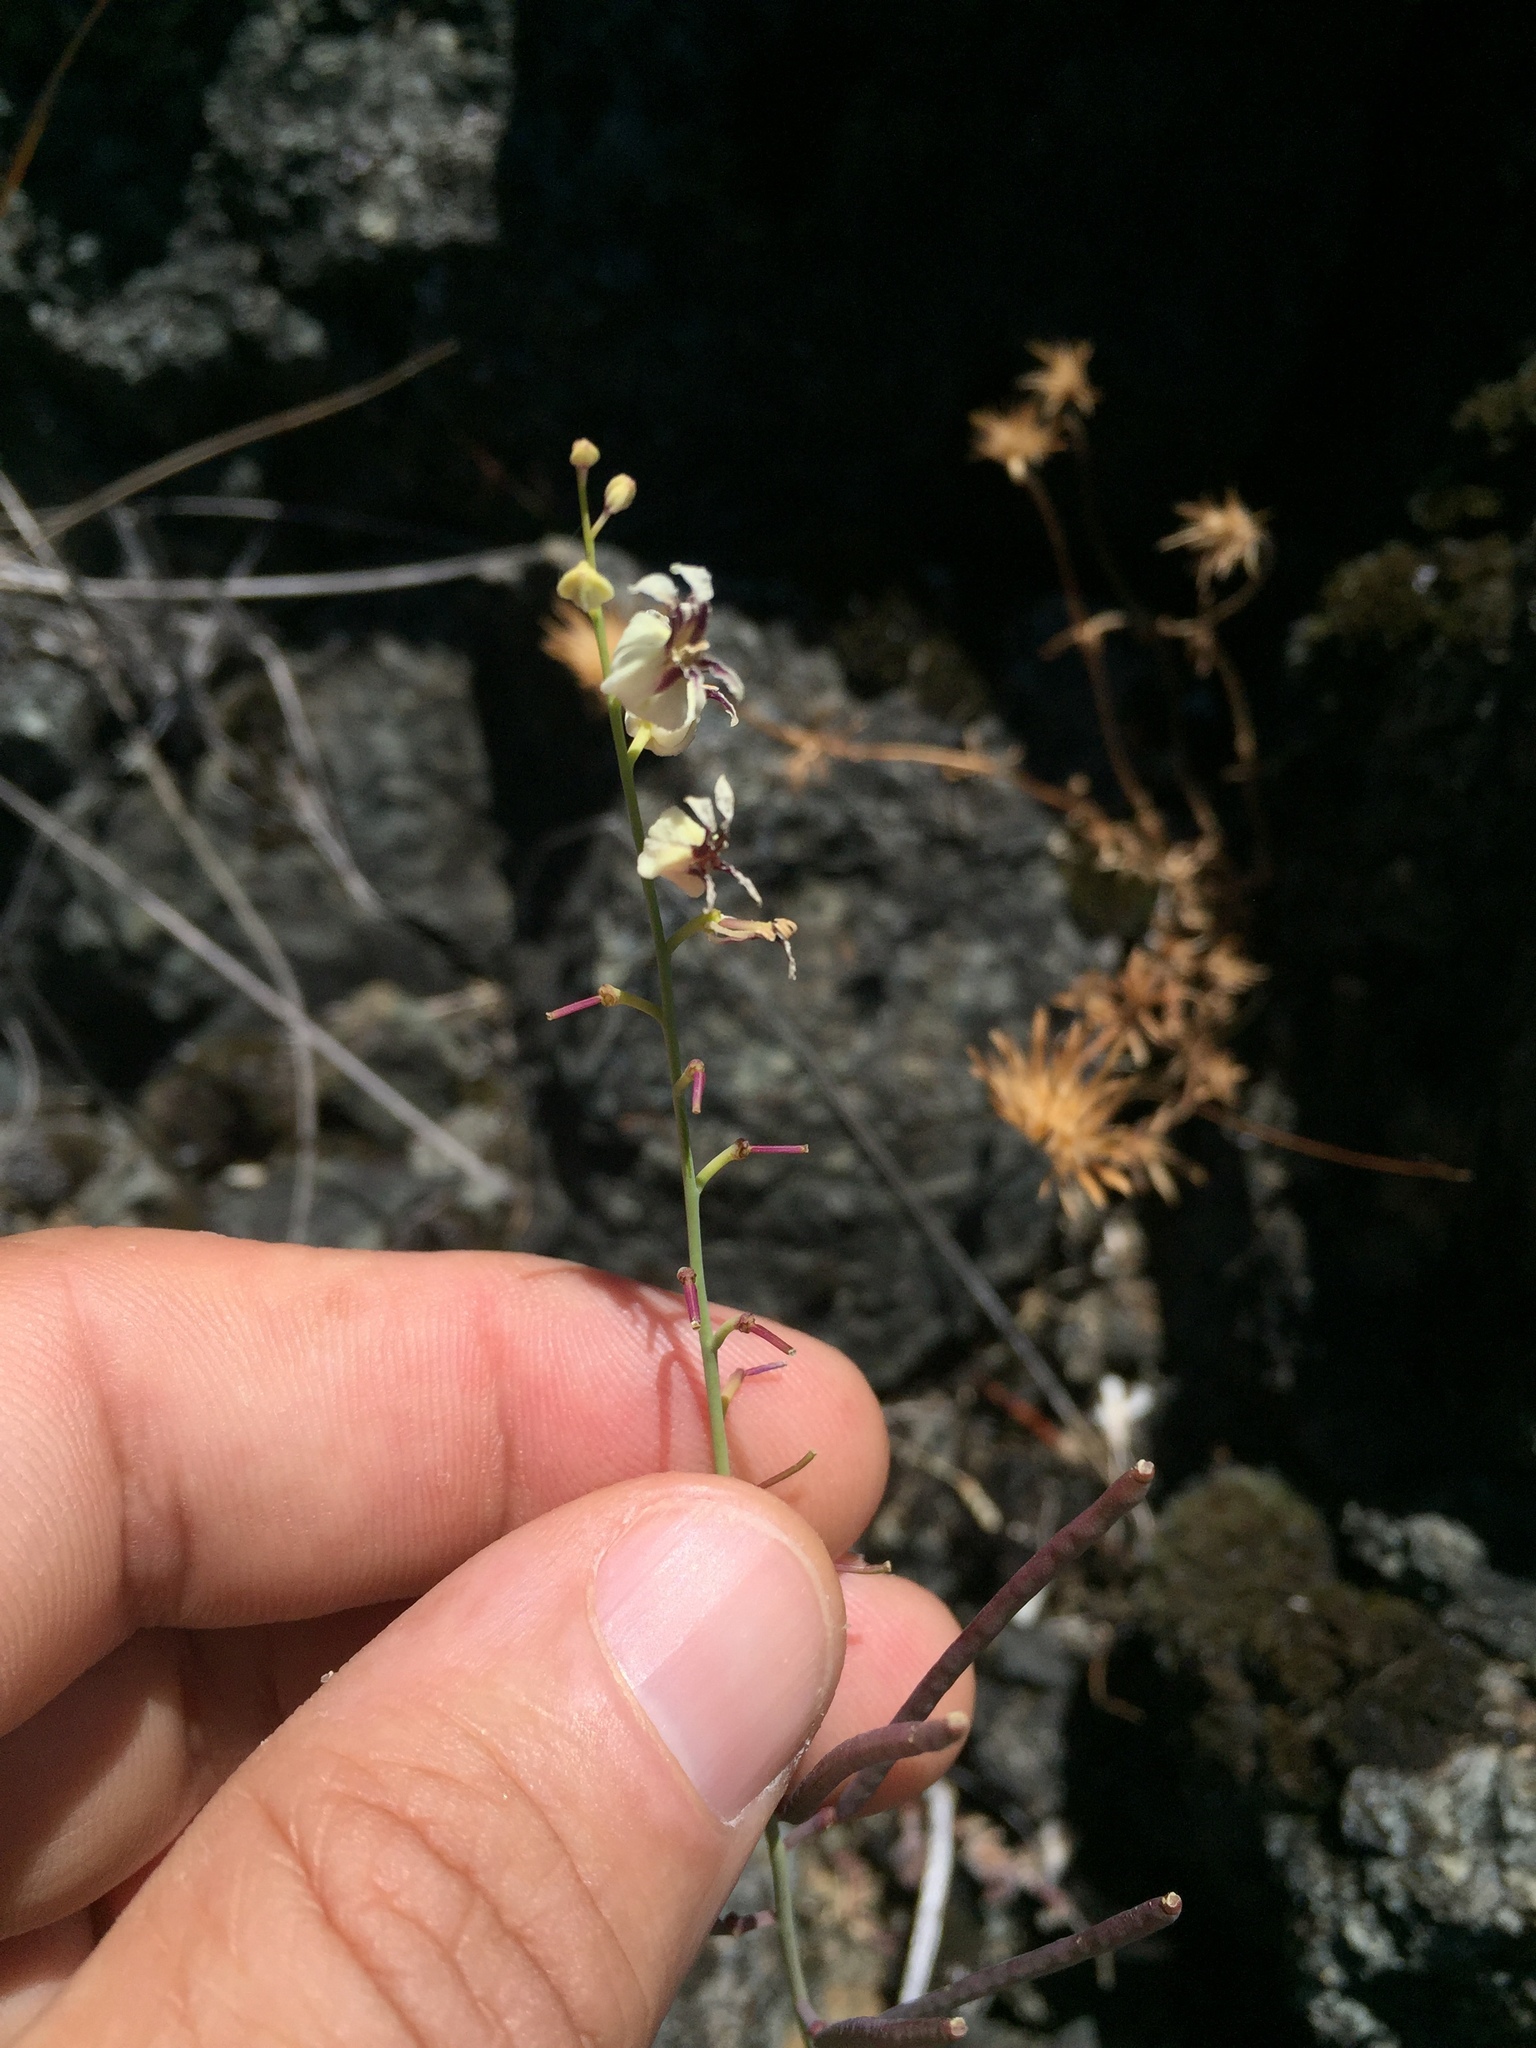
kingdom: Plantae
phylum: Tracheophyta
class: Magnoliopsida
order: Brassicales
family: Brassicaceae
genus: Streptanthus
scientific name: Streptanthus glandulosus
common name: Jewel-flower
